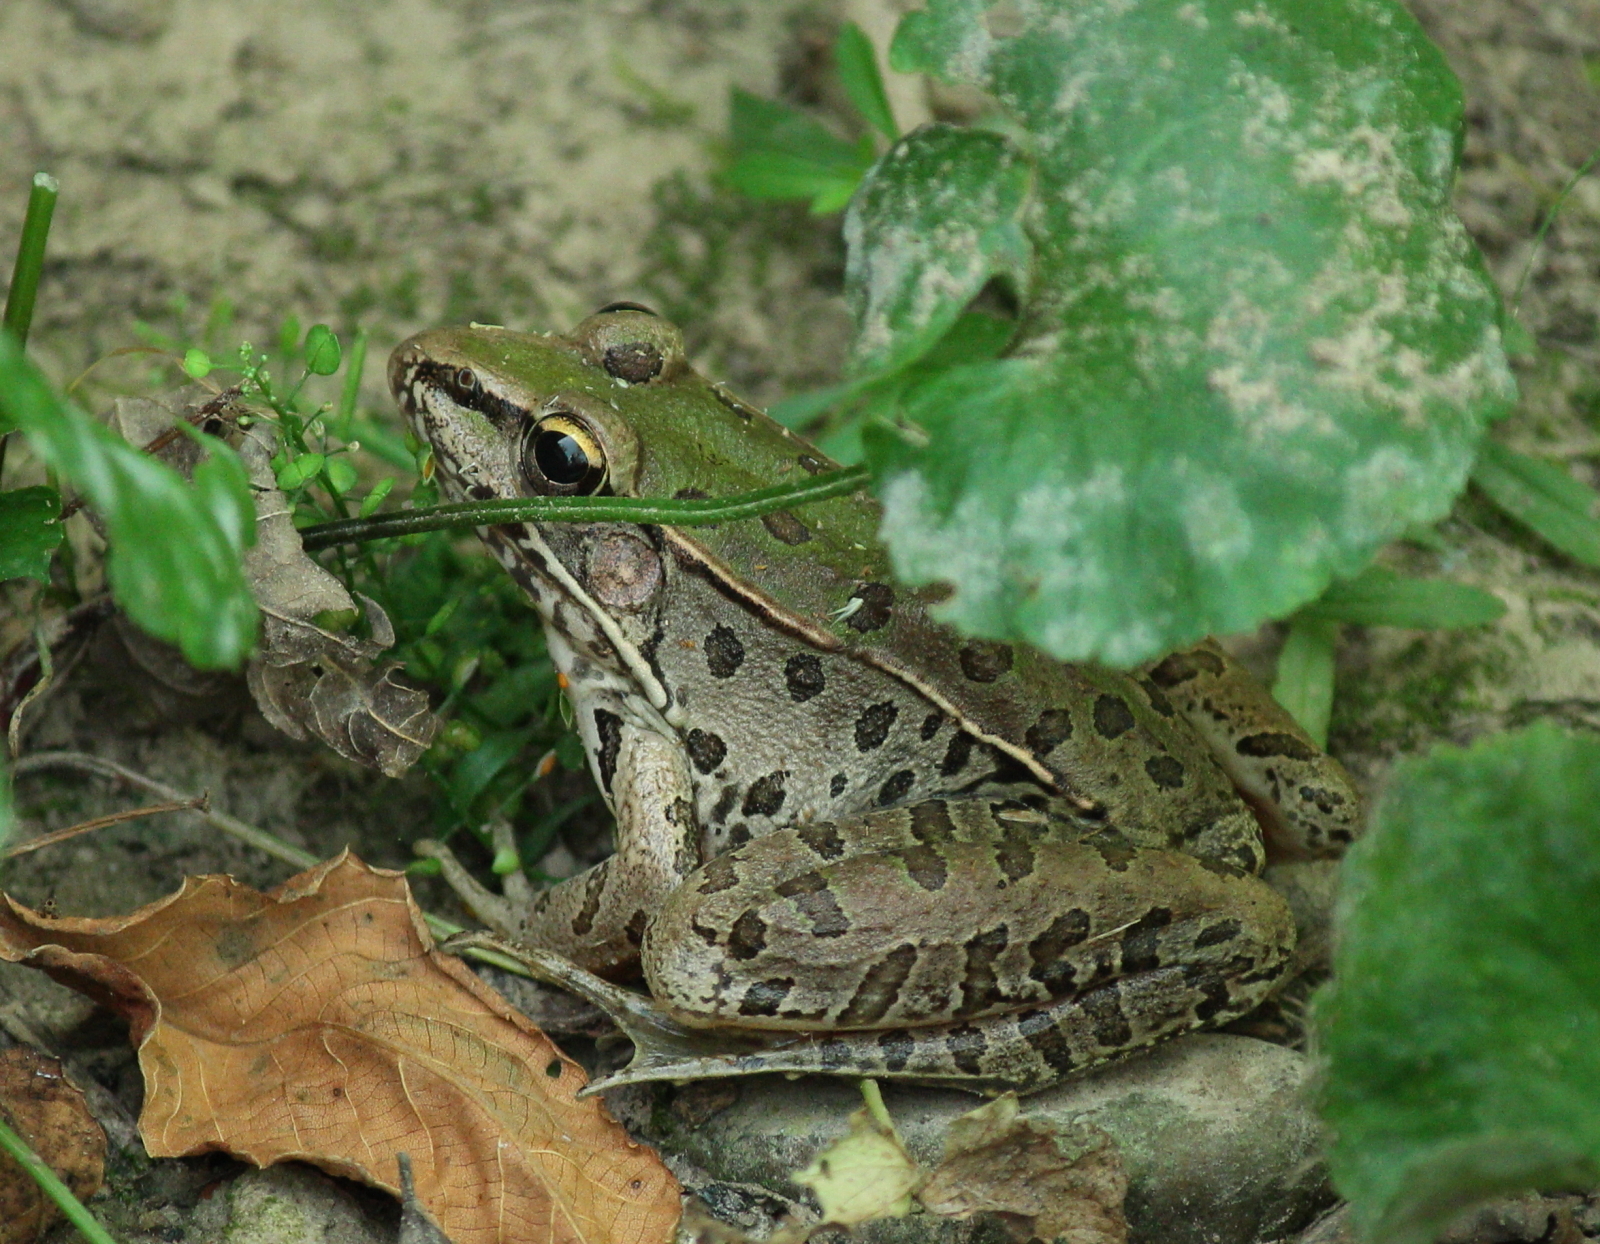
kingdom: Animalia
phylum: Chordata
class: Amphibia
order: Anura
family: Ranidae
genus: Lithobates
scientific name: Lithobates sphenocephalus
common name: Southern leopard frog
